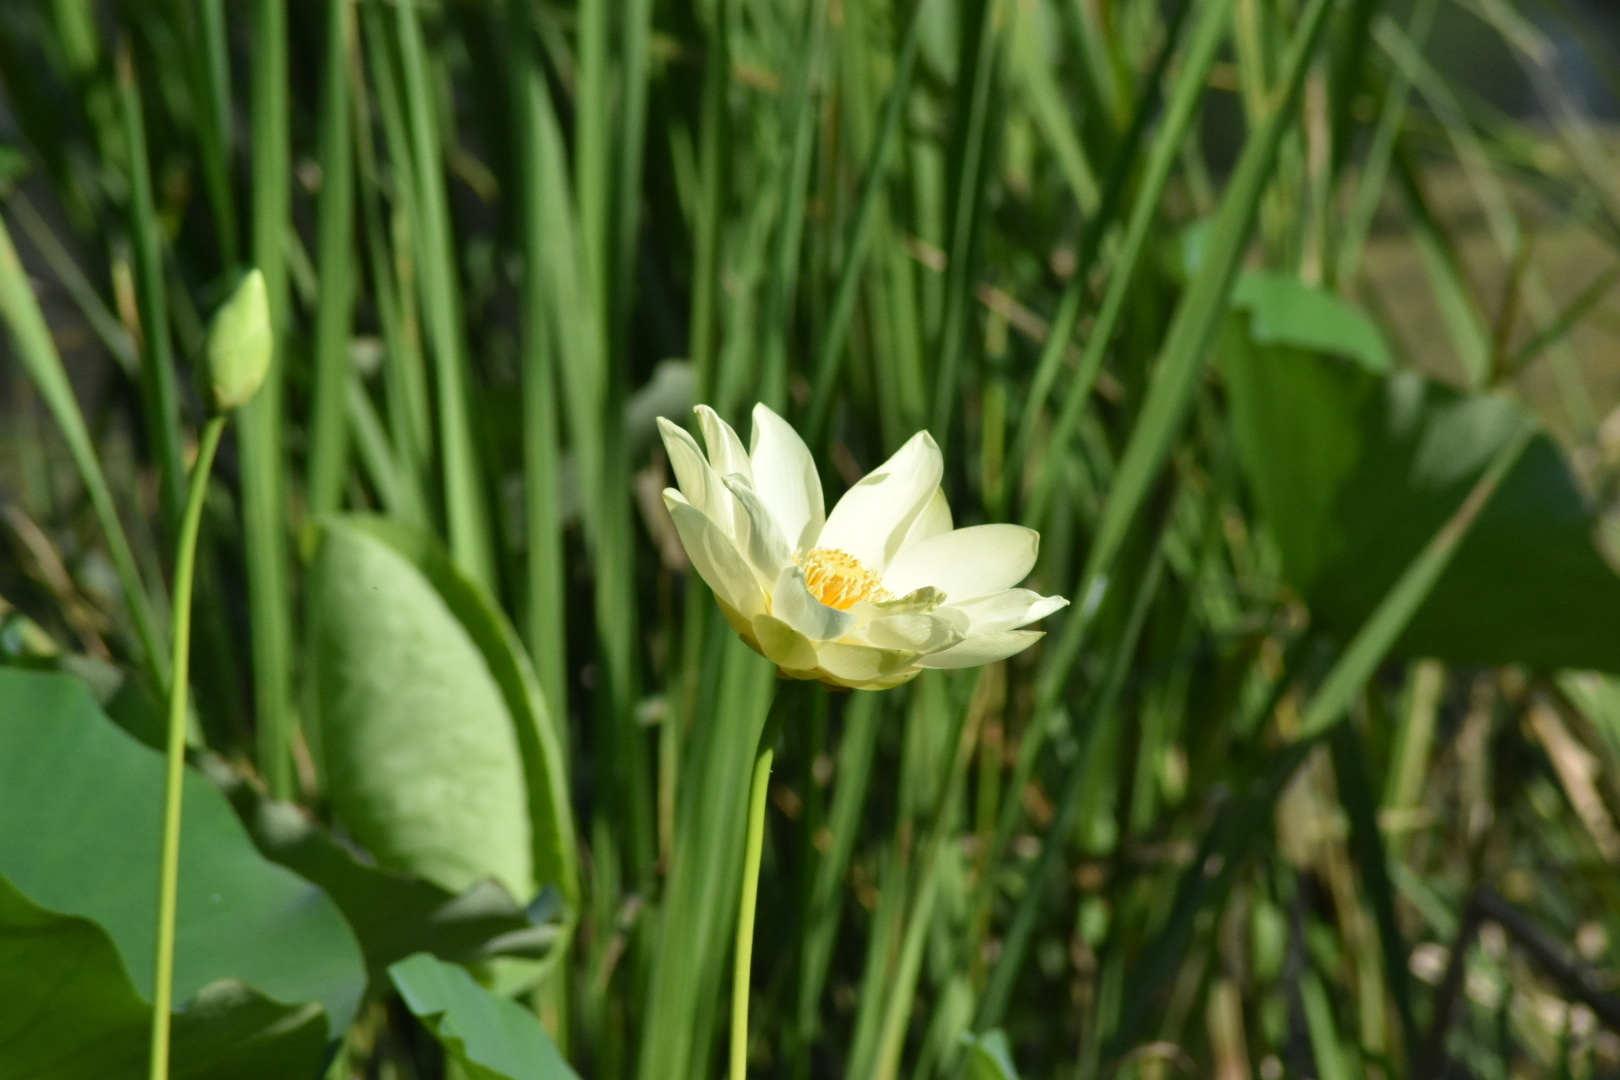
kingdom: Plantae
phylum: Tracheophyta
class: Magnoliopsida
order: Proteales
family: Nelumbonaceae
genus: Nelumbo
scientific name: Nelumbo lutea
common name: American lotus
